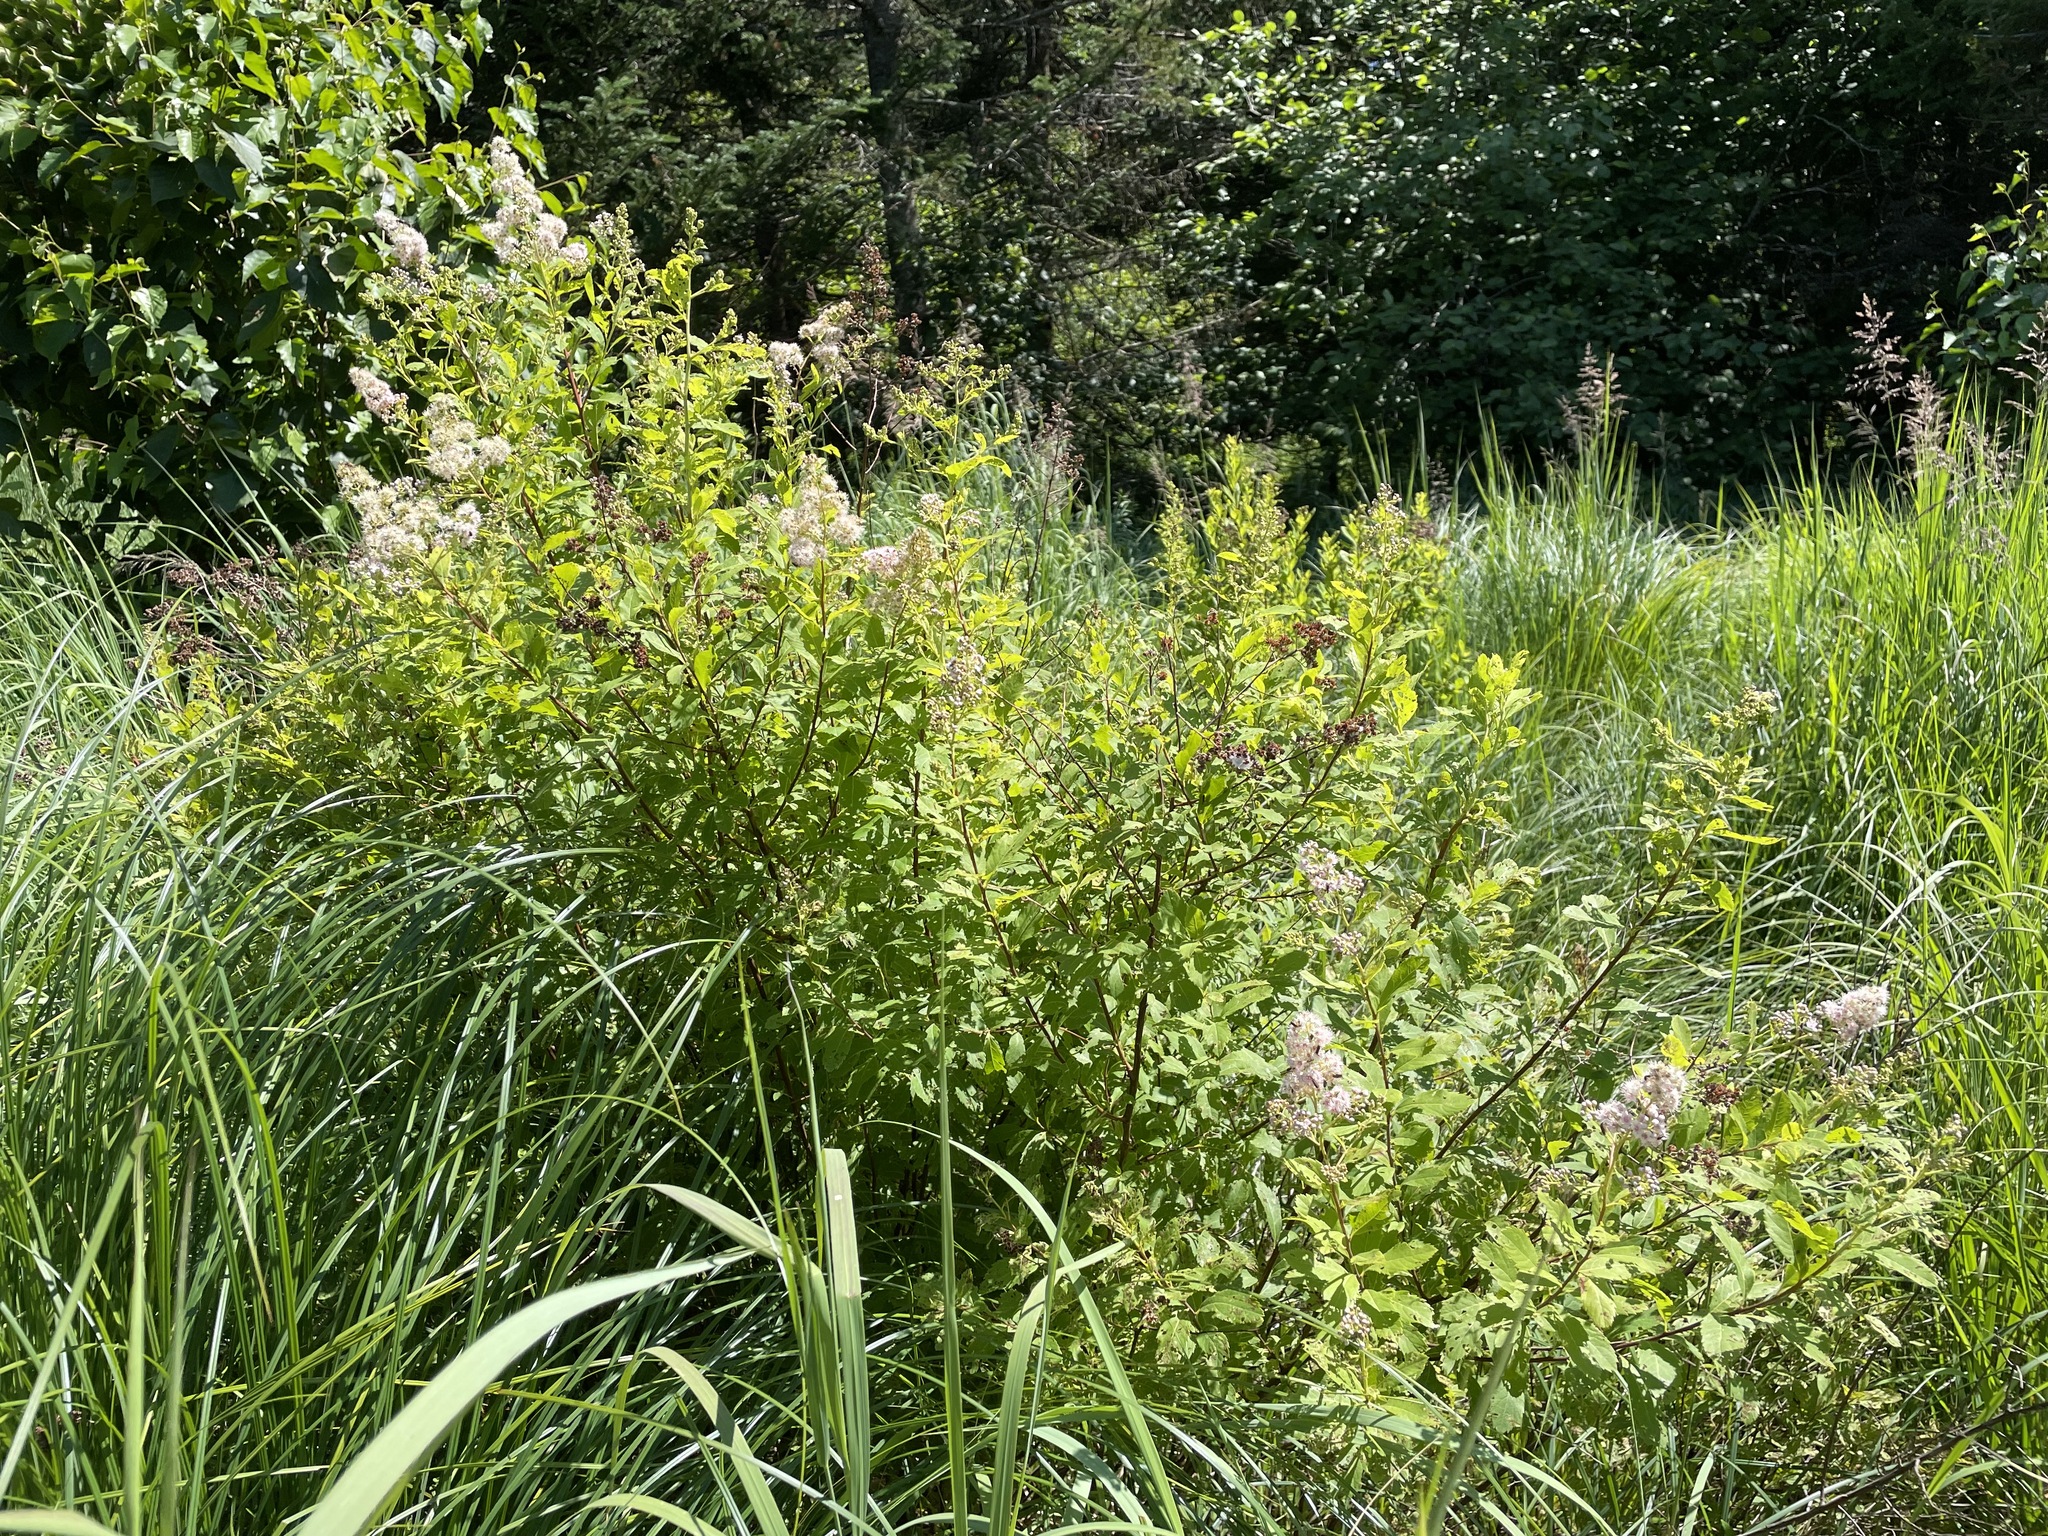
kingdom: Plantae
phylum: Tracheophyta
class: Magnoliopsida
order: Rosales
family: Rosaceae
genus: Spiraea
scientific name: Spiraea alba
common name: Pale bridewort
